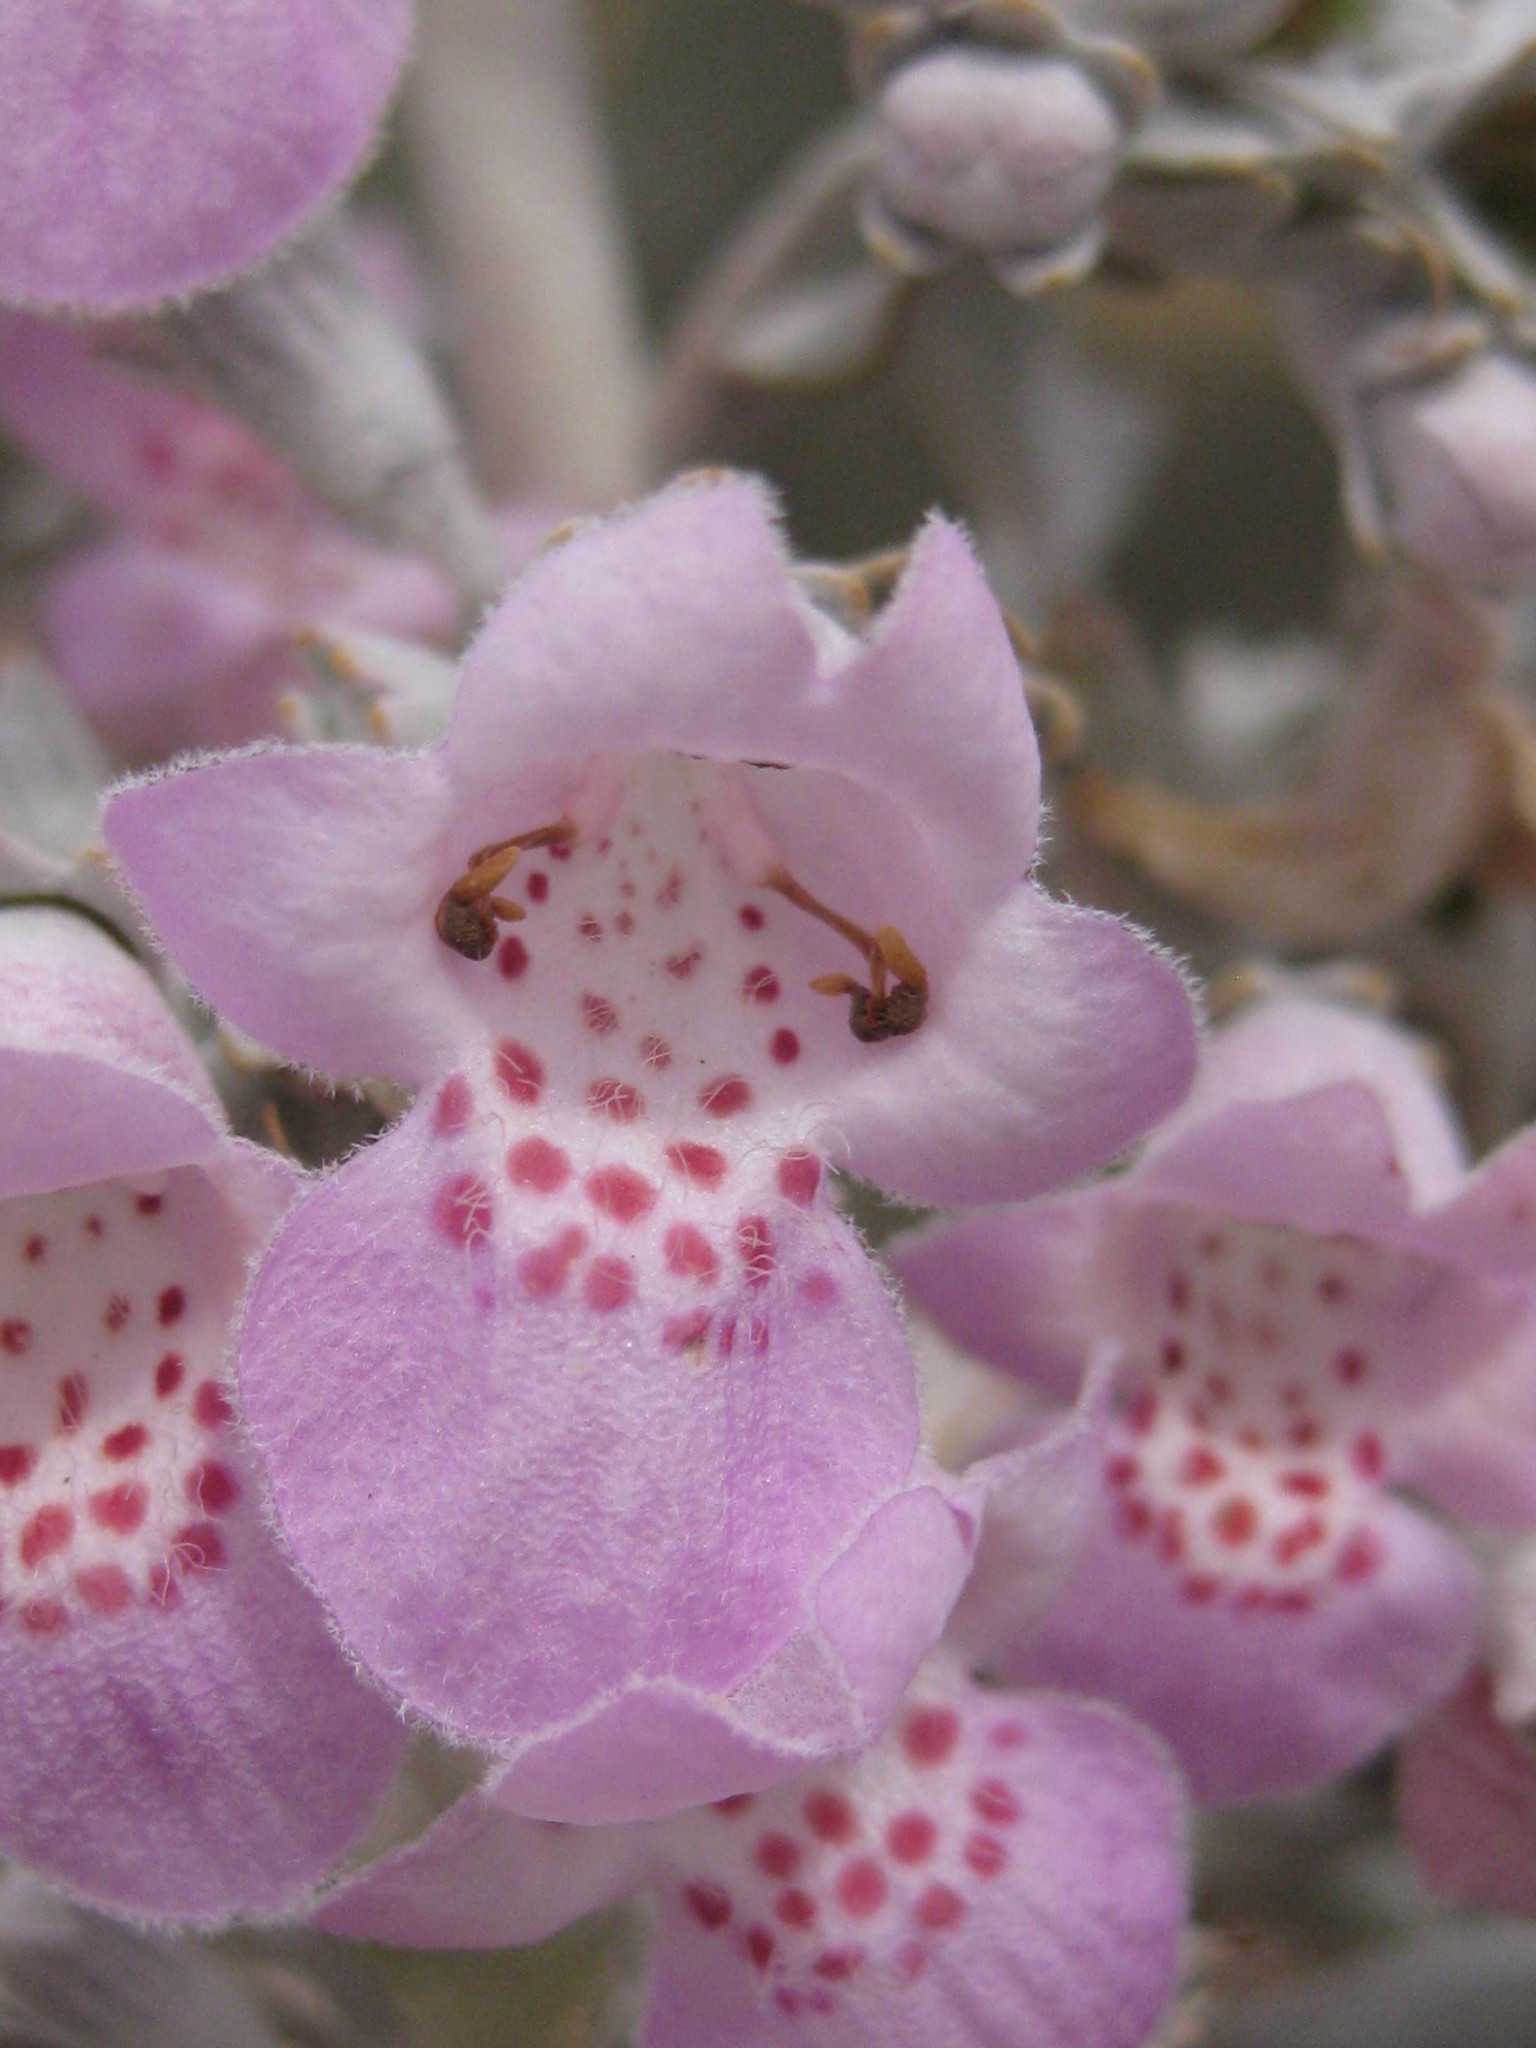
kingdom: Plantae
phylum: Tracheophyta
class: Magnoliopsida
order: Lamiales
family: Lamiaceae
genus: Quoya
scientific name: Quoya atriplicina
